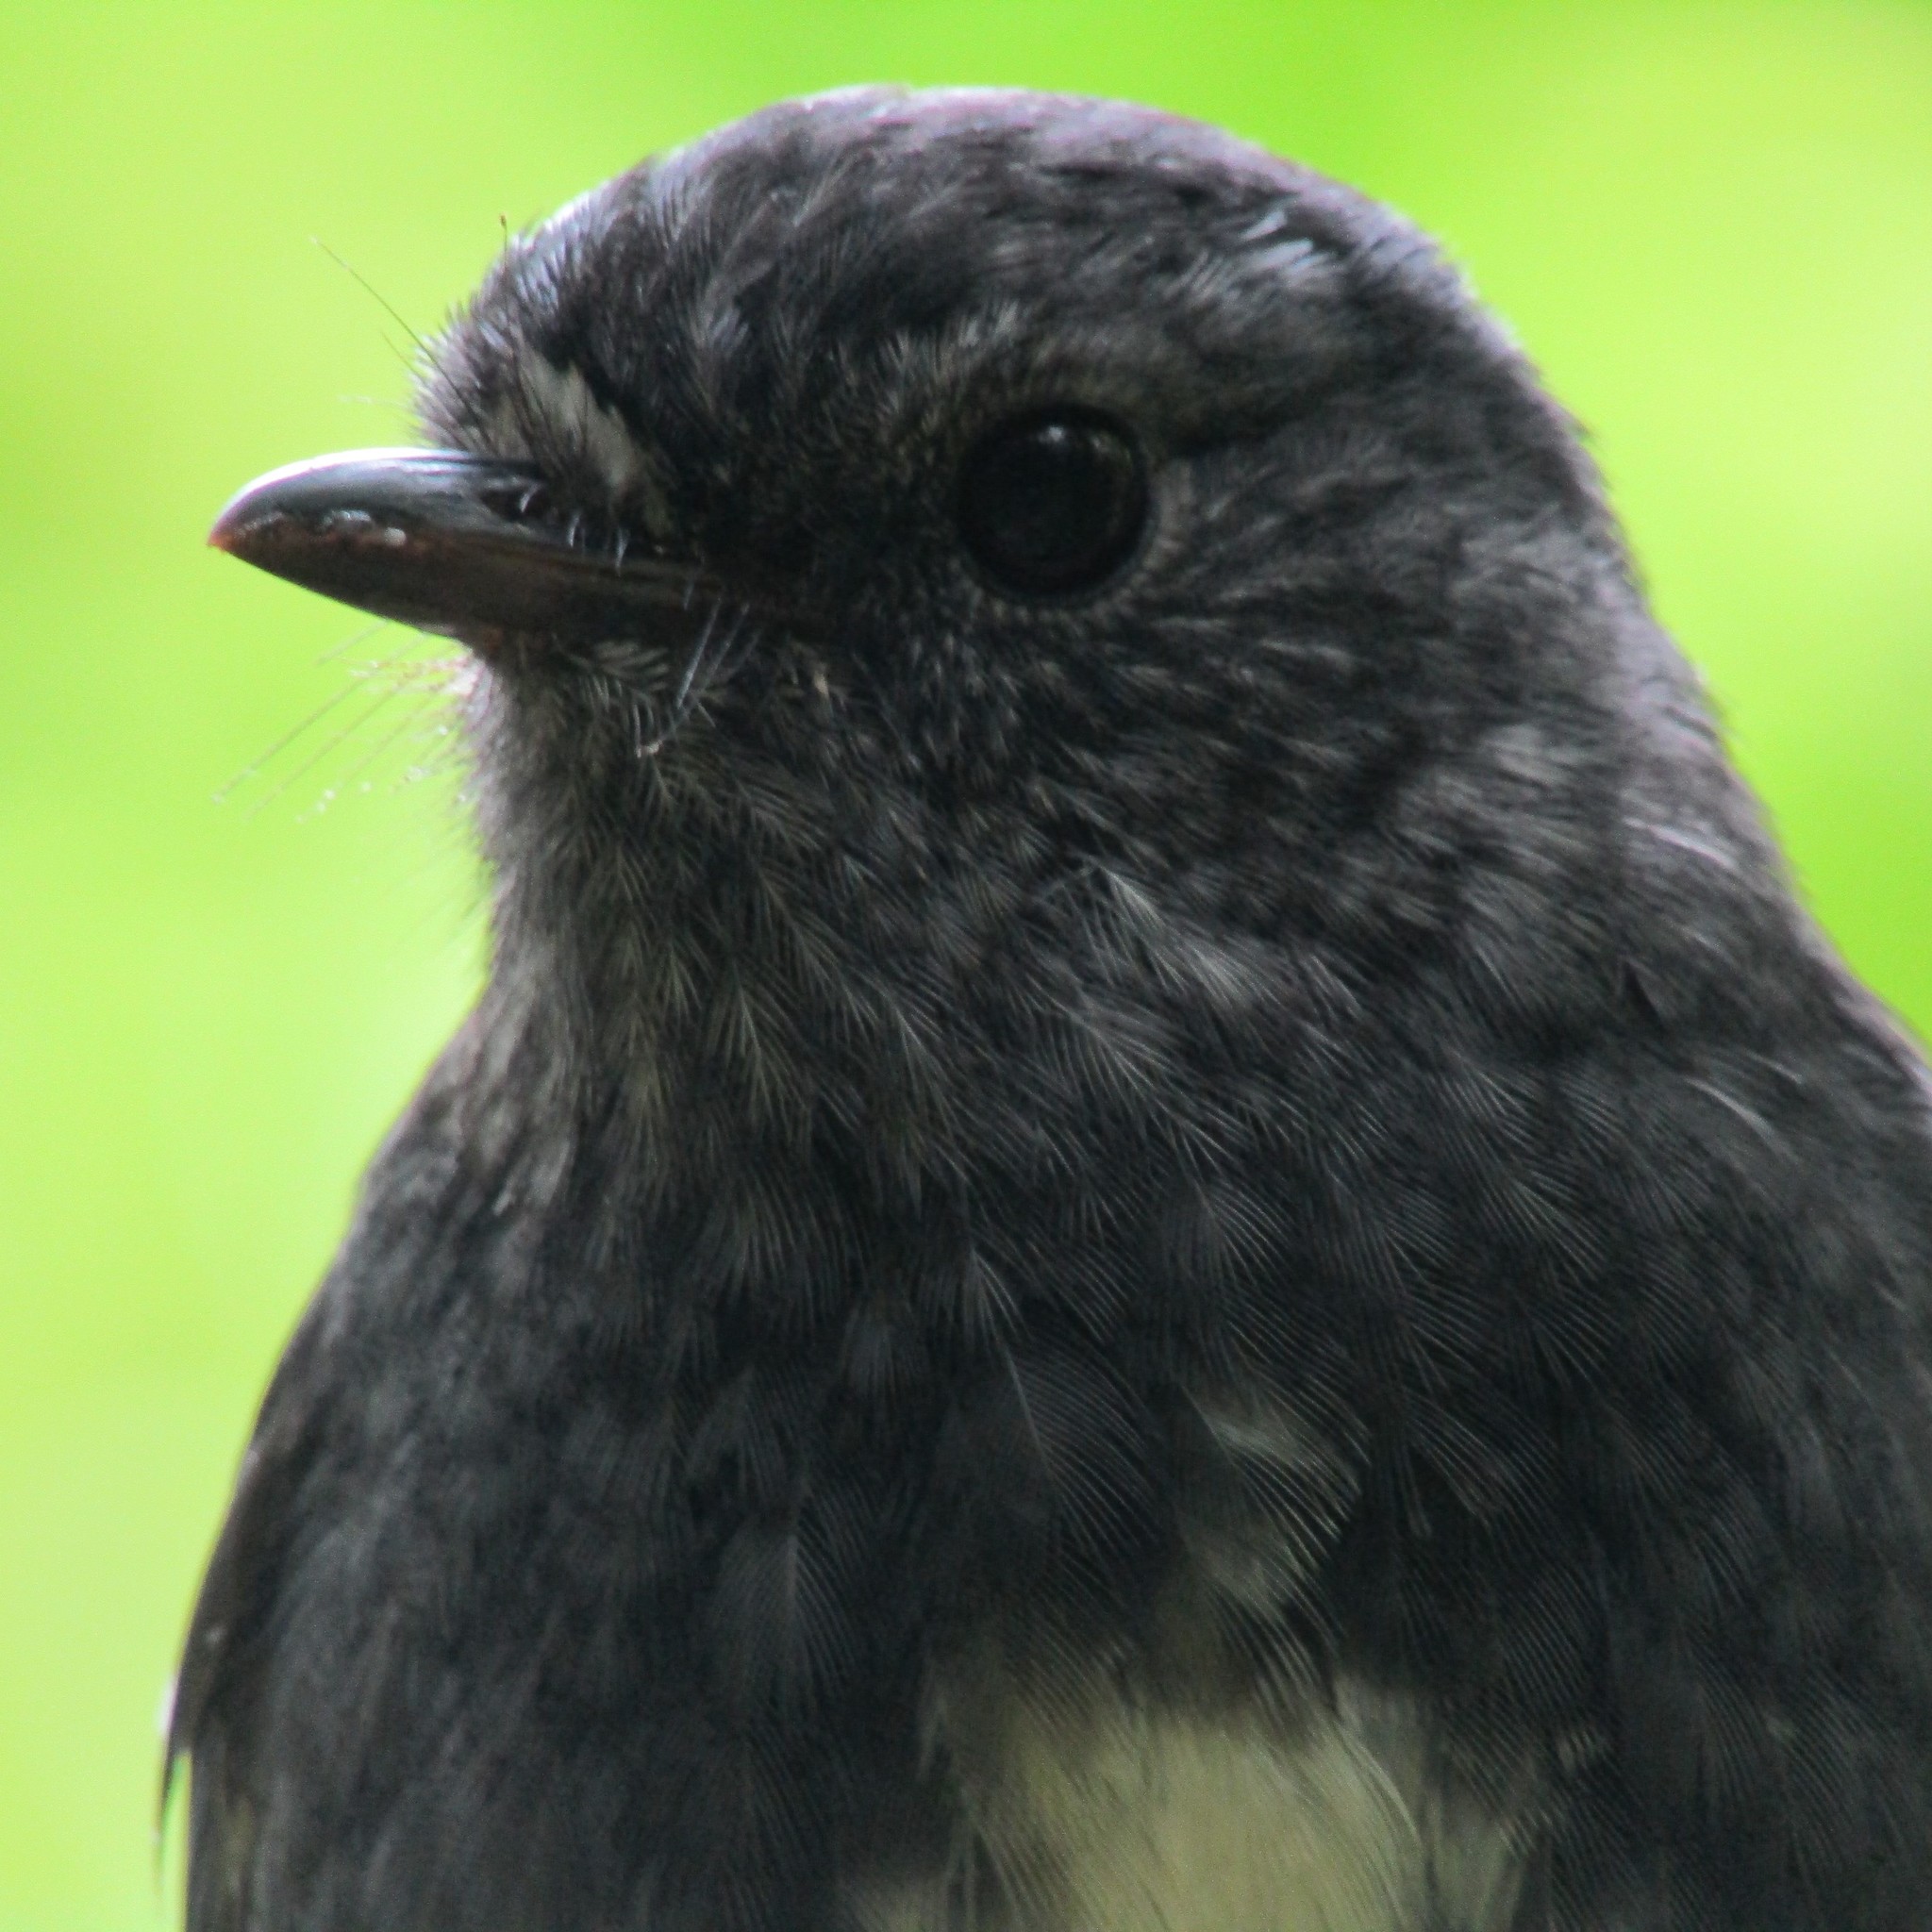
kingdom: Animalia
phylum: Chordata
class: Aves
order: Passeriformes
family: Petroicidae
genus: Petroica
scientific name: Petroica australis
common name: New zealand robin
